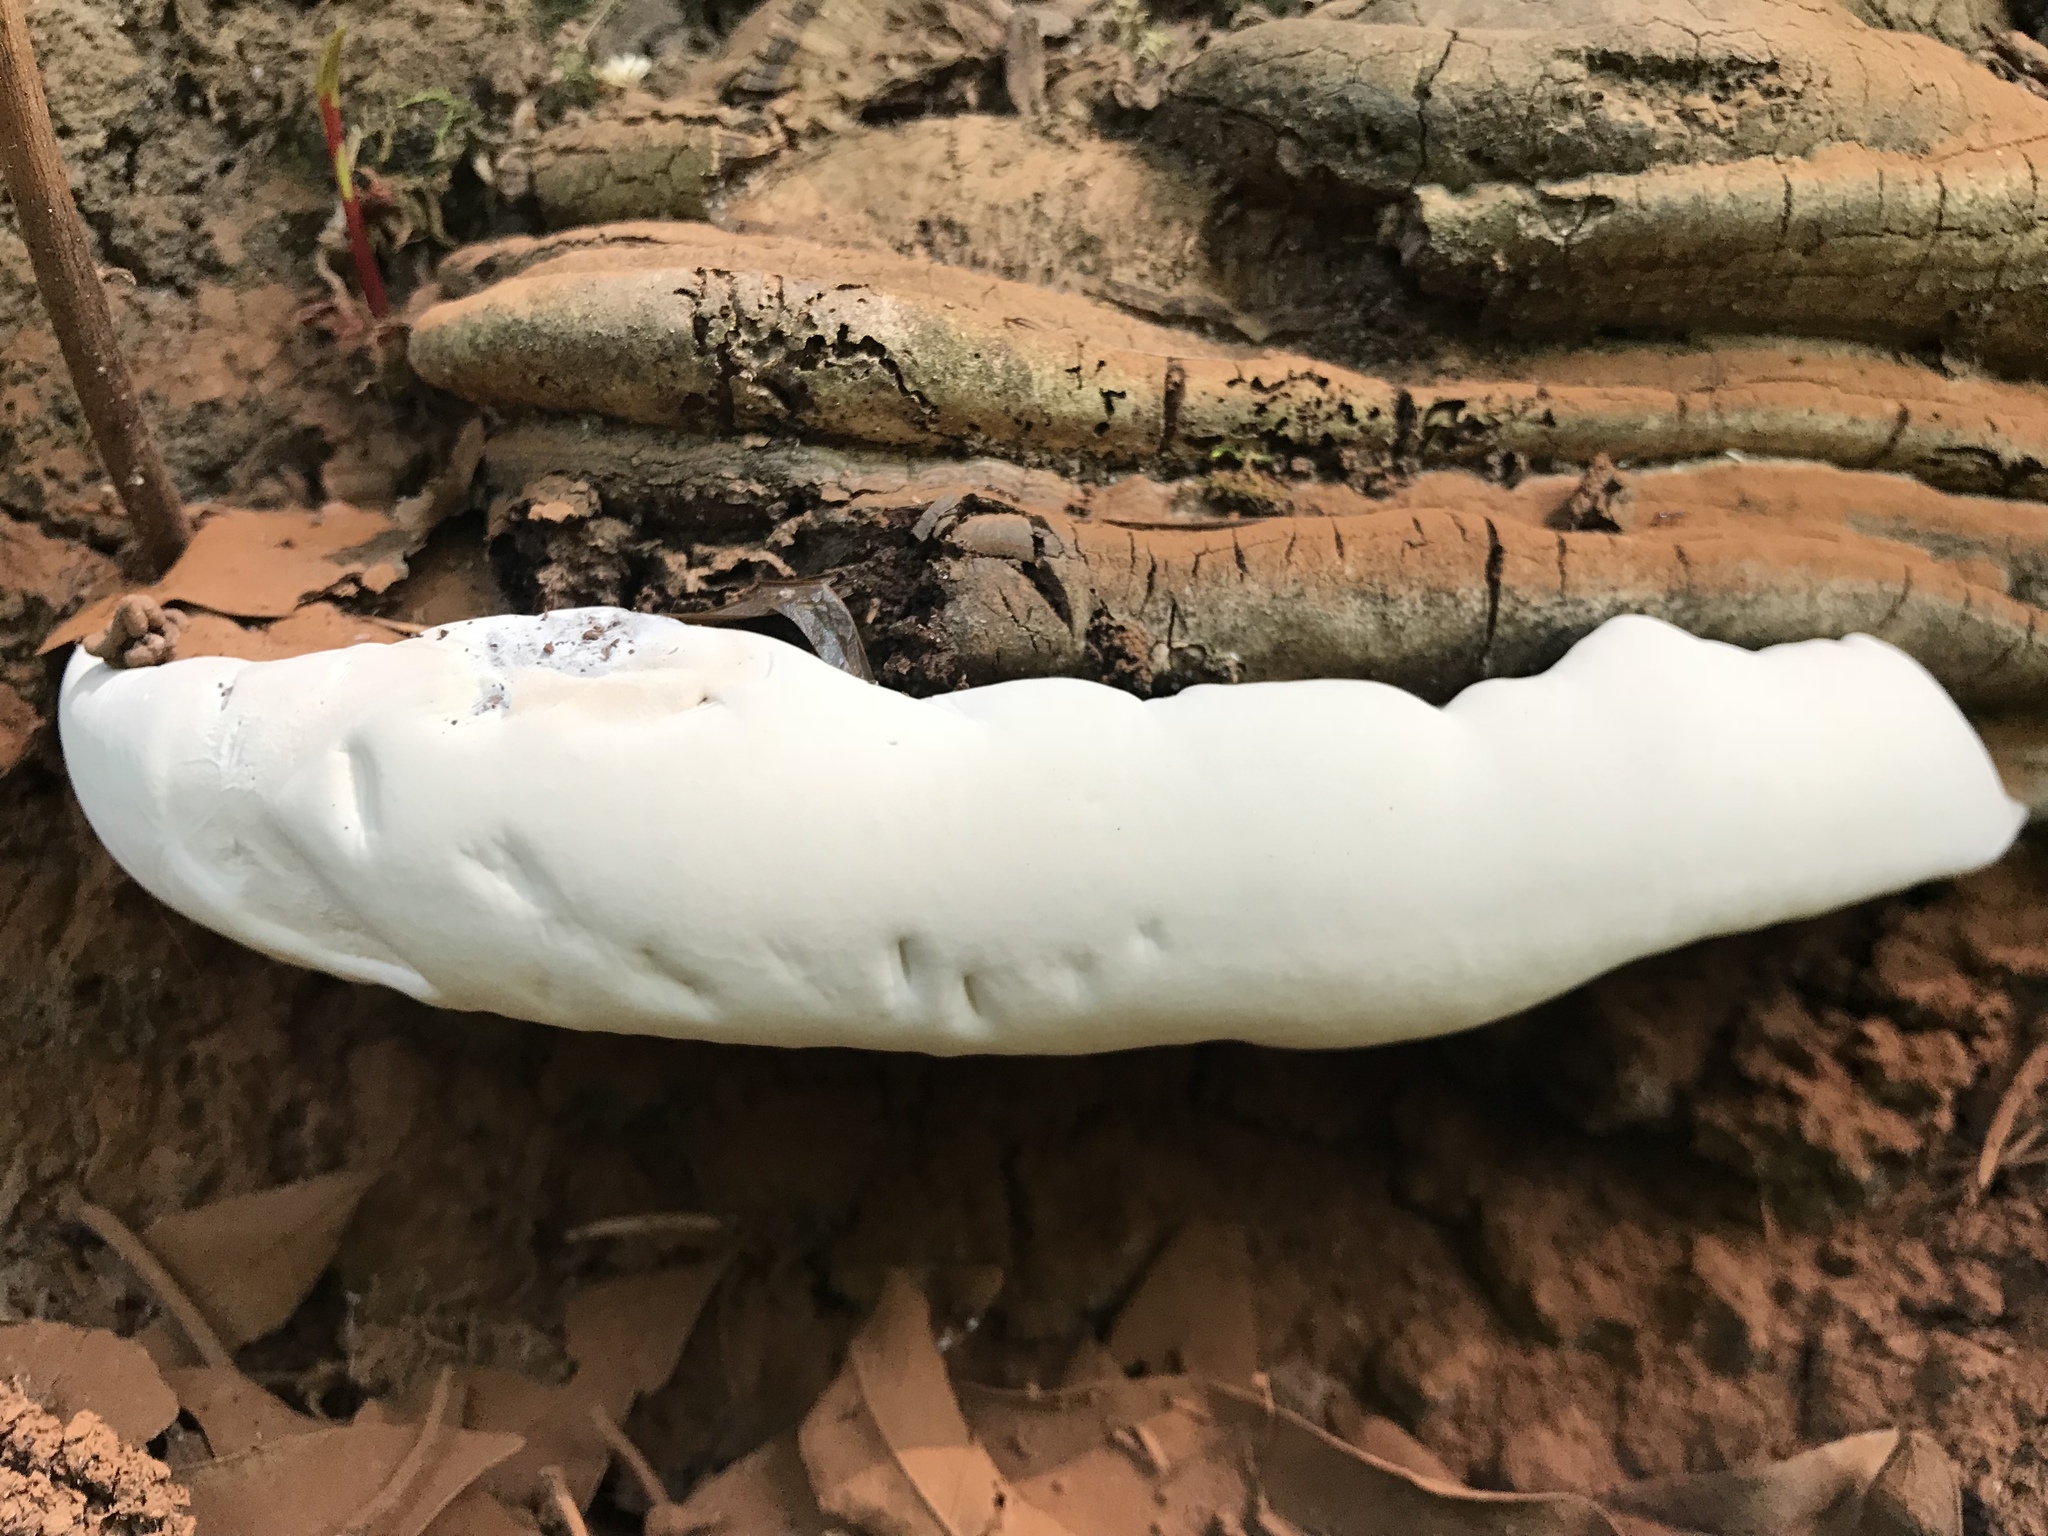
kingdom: Fungi
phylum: Basidiomycota
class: Agaricomycetes
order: Polyporales
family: Polyporaceae
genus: Ganoderma
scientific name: Ganoderma brownii
